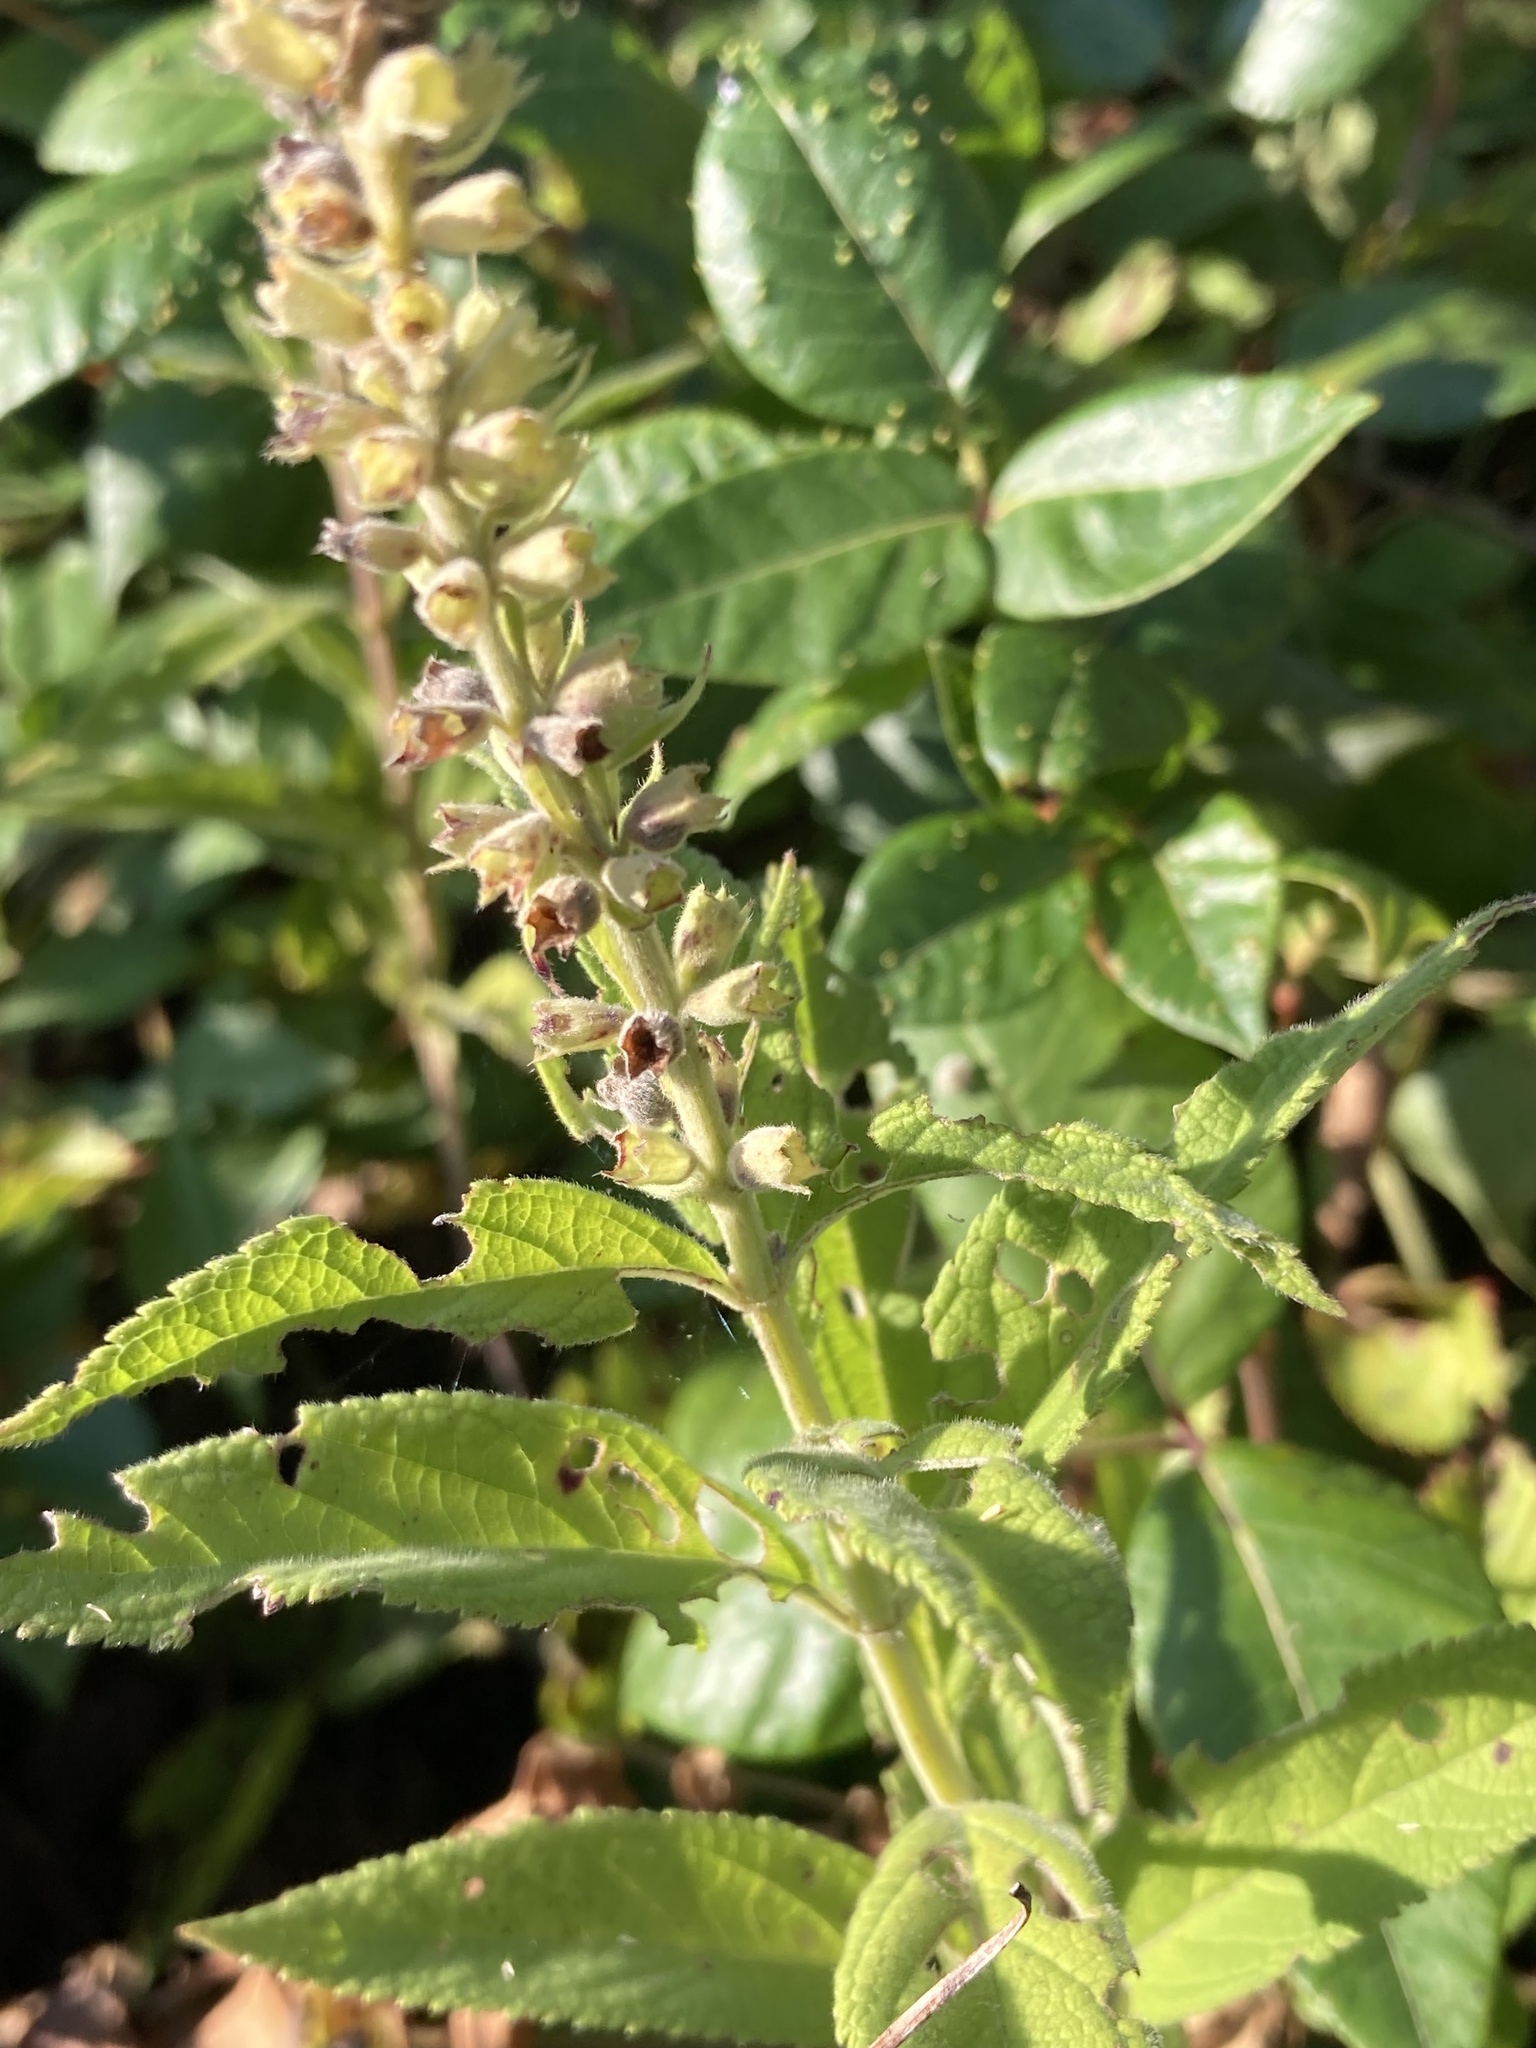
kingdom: Plantae
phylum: Tracheophyta
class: Magnoliopsida
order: Lamiales
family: Lamiaceae
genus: Teucrium
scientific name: Teucrium canadense
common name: American germander
